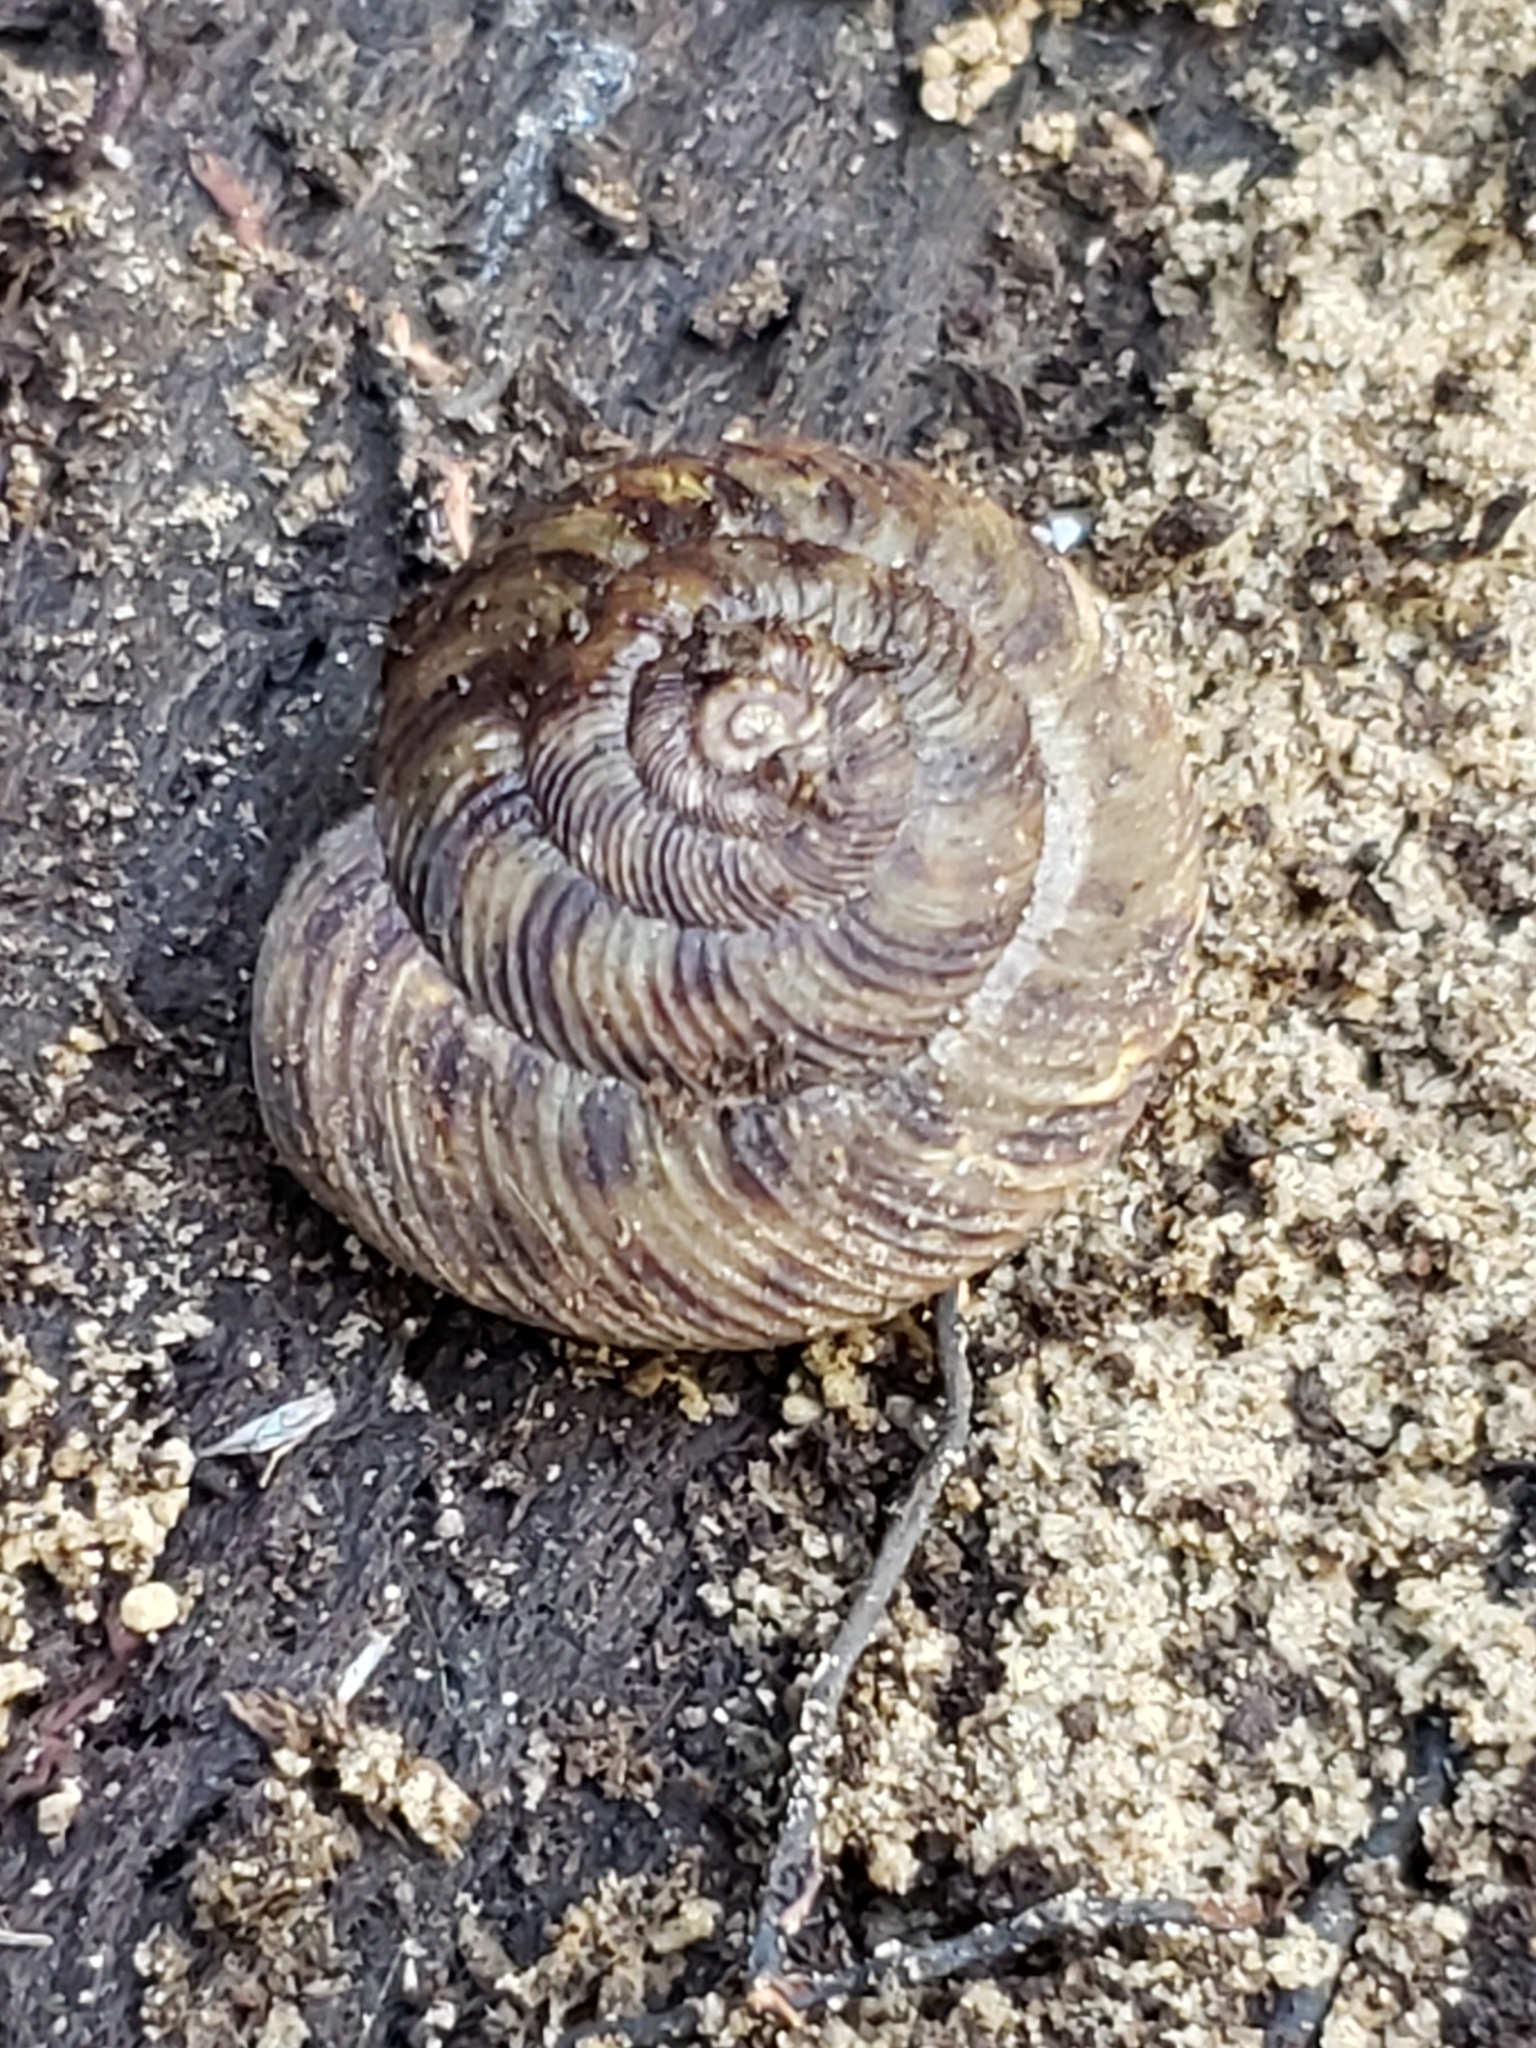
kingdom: Animalia
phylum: Mollusca
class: Gastropoda
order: Stylommatophora
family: Discidae
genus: Anguispira
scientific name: Anguispira alternata
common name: Flamed tigersnail
